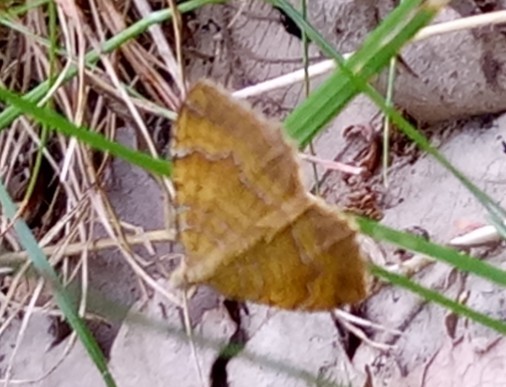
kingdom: Animalia
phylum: Arthropoda
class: Insecta
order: Lepidoptera
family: Geometridae
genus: Camptogramma
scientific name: Camptogramma bilineata
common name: Yellow shell
